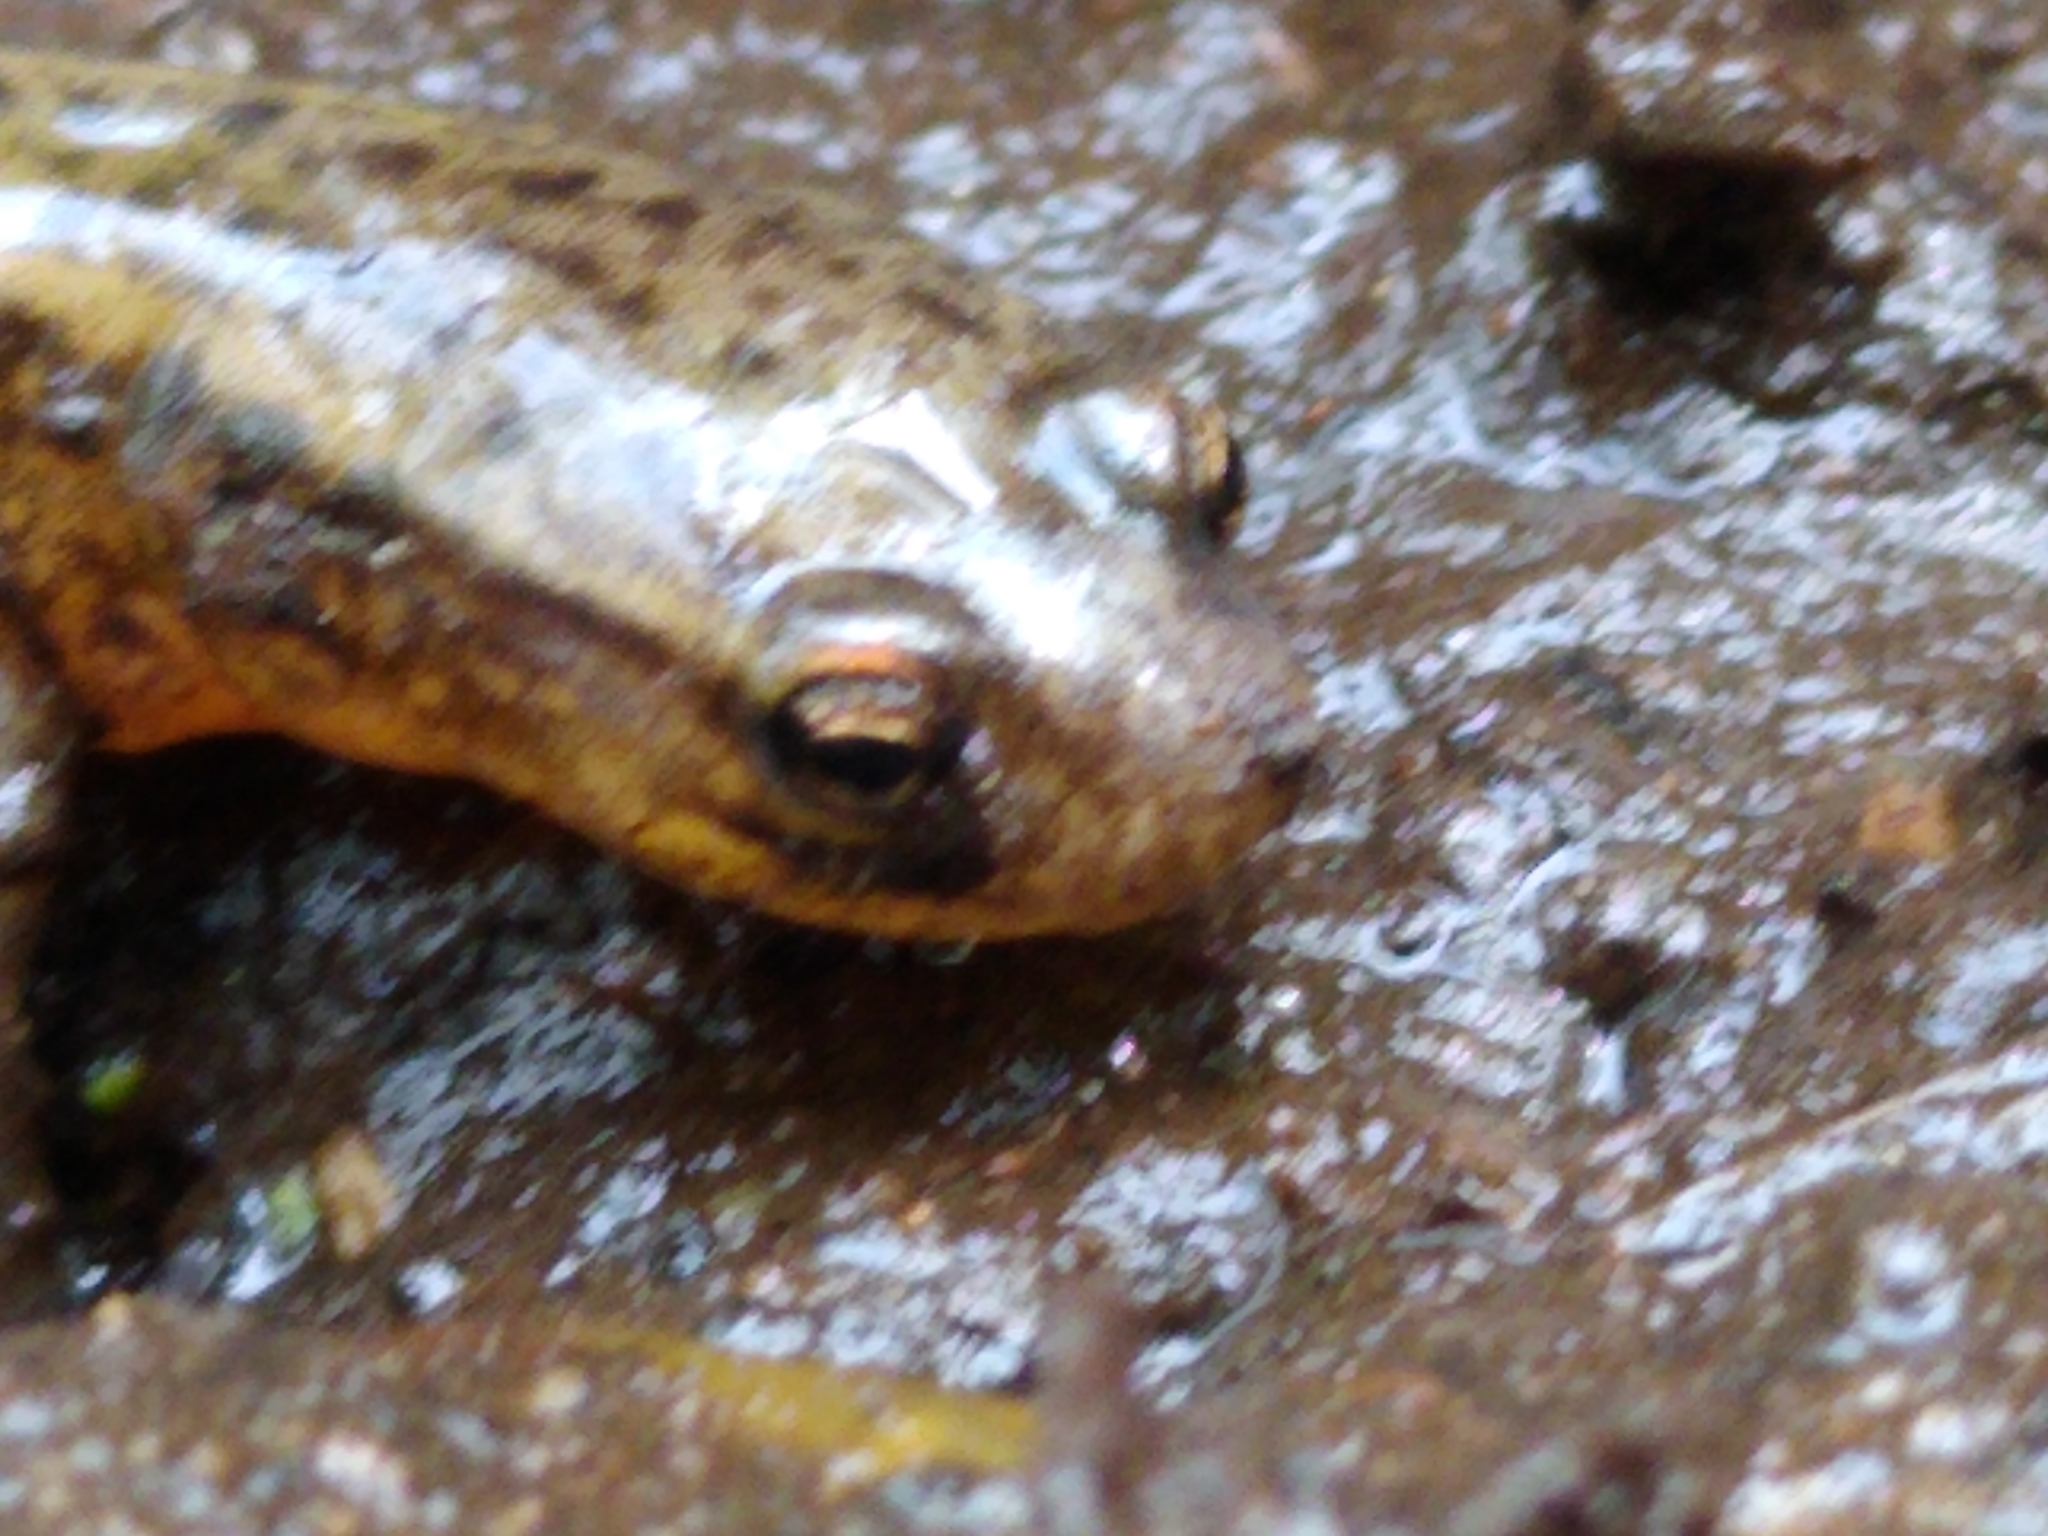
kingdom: Animalia
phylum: Chordata
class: Amphibia
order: Caudata
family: Plethodontidae
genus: Eurycea
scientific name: Eurycea bislineata
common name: Northern two-lined salamander
